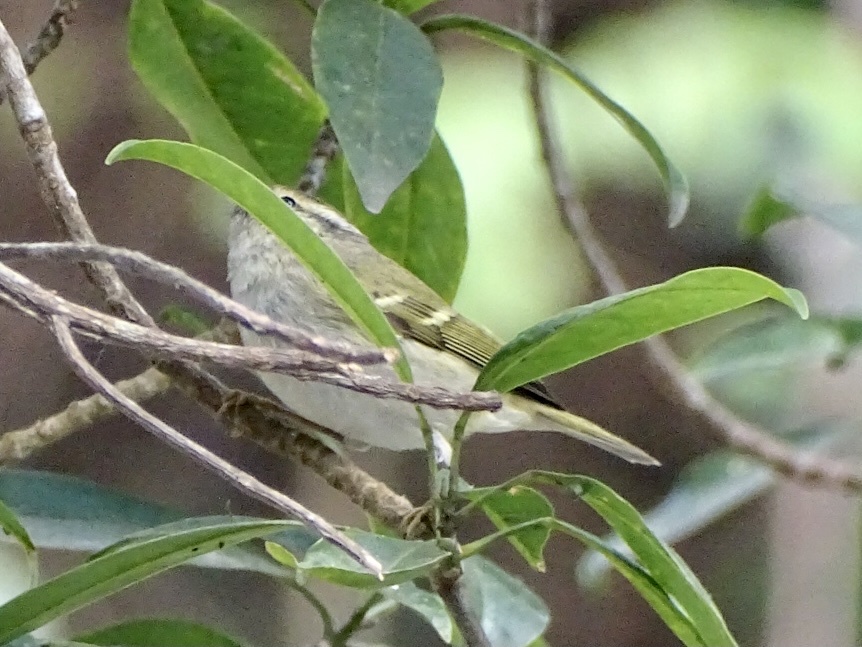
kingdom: Animalia
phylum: Chordata
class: Aves
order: Passeriformes
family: Phylloscopidae
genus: Phylloscopus
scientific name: Phylloscopus inornatus
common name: Yellow-browed warbler
